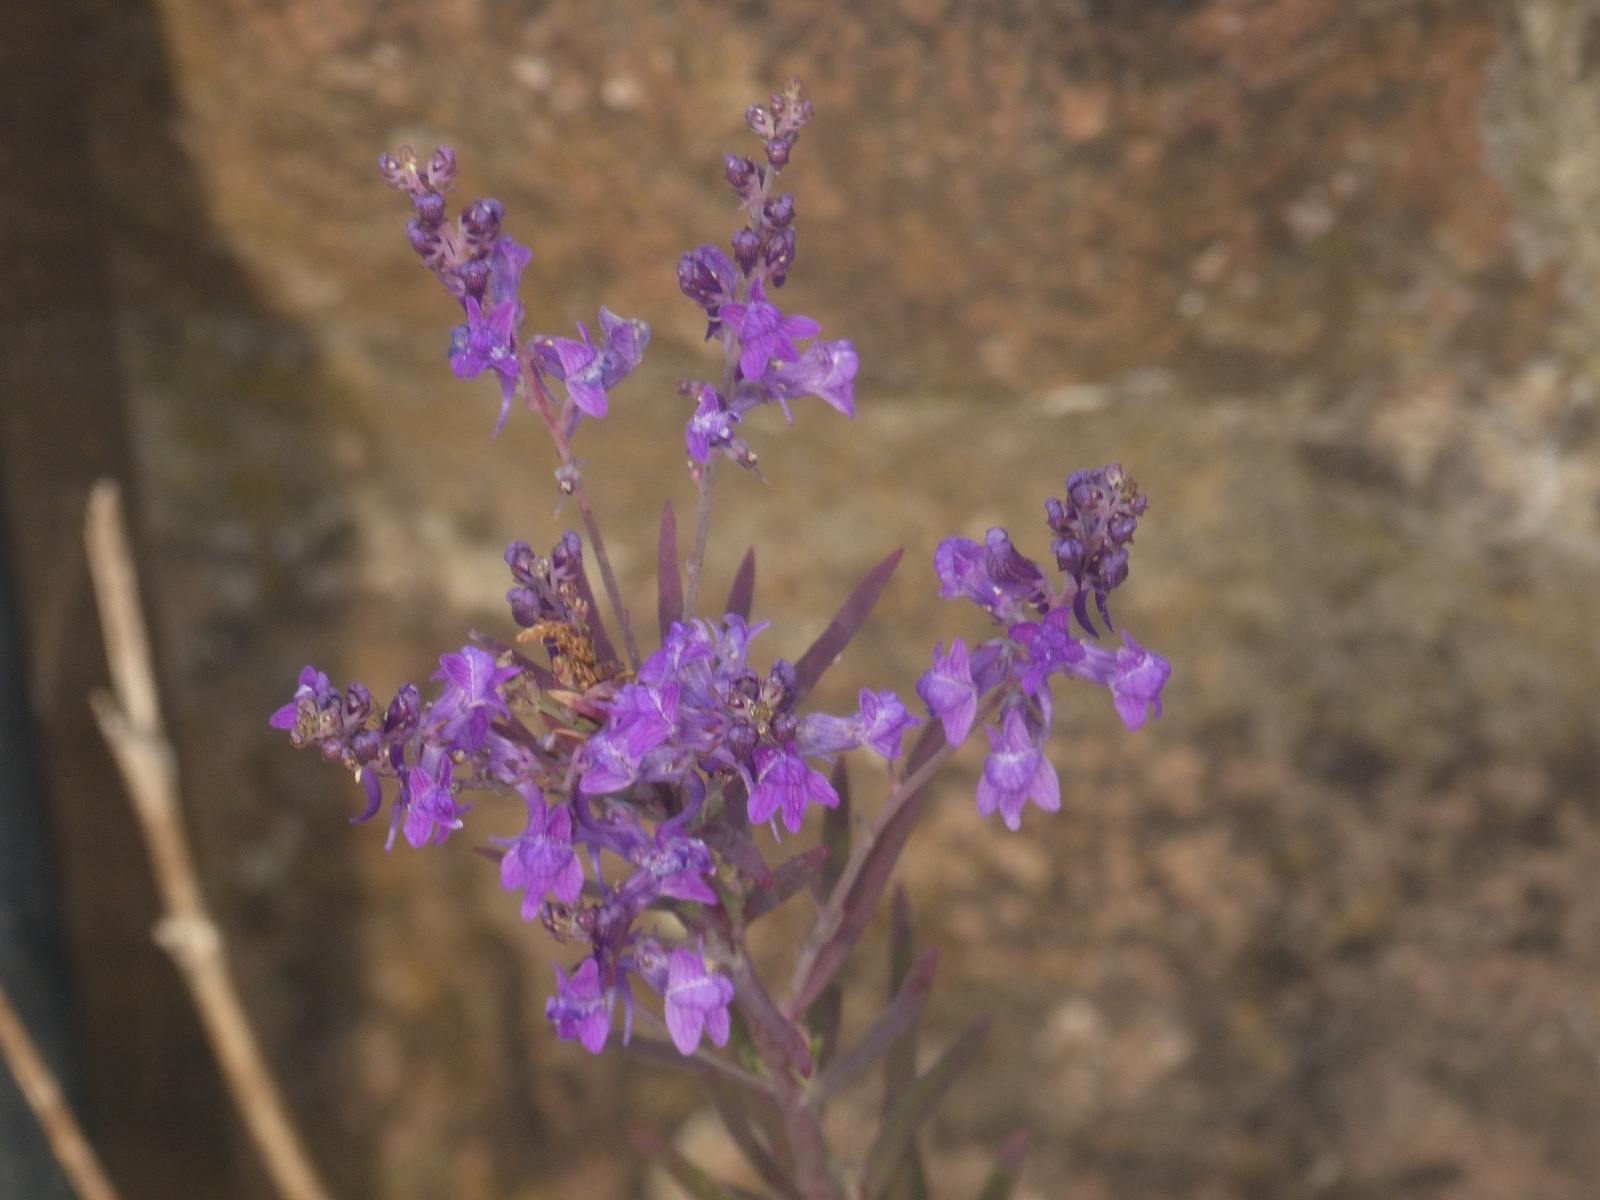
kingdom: Plantae
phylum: Tracheophyta
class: Magnoliopsida
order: Lamiales
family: Plantaginaceae
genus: Linaria
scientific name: Linaria purpurea
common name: Purple toadflax
